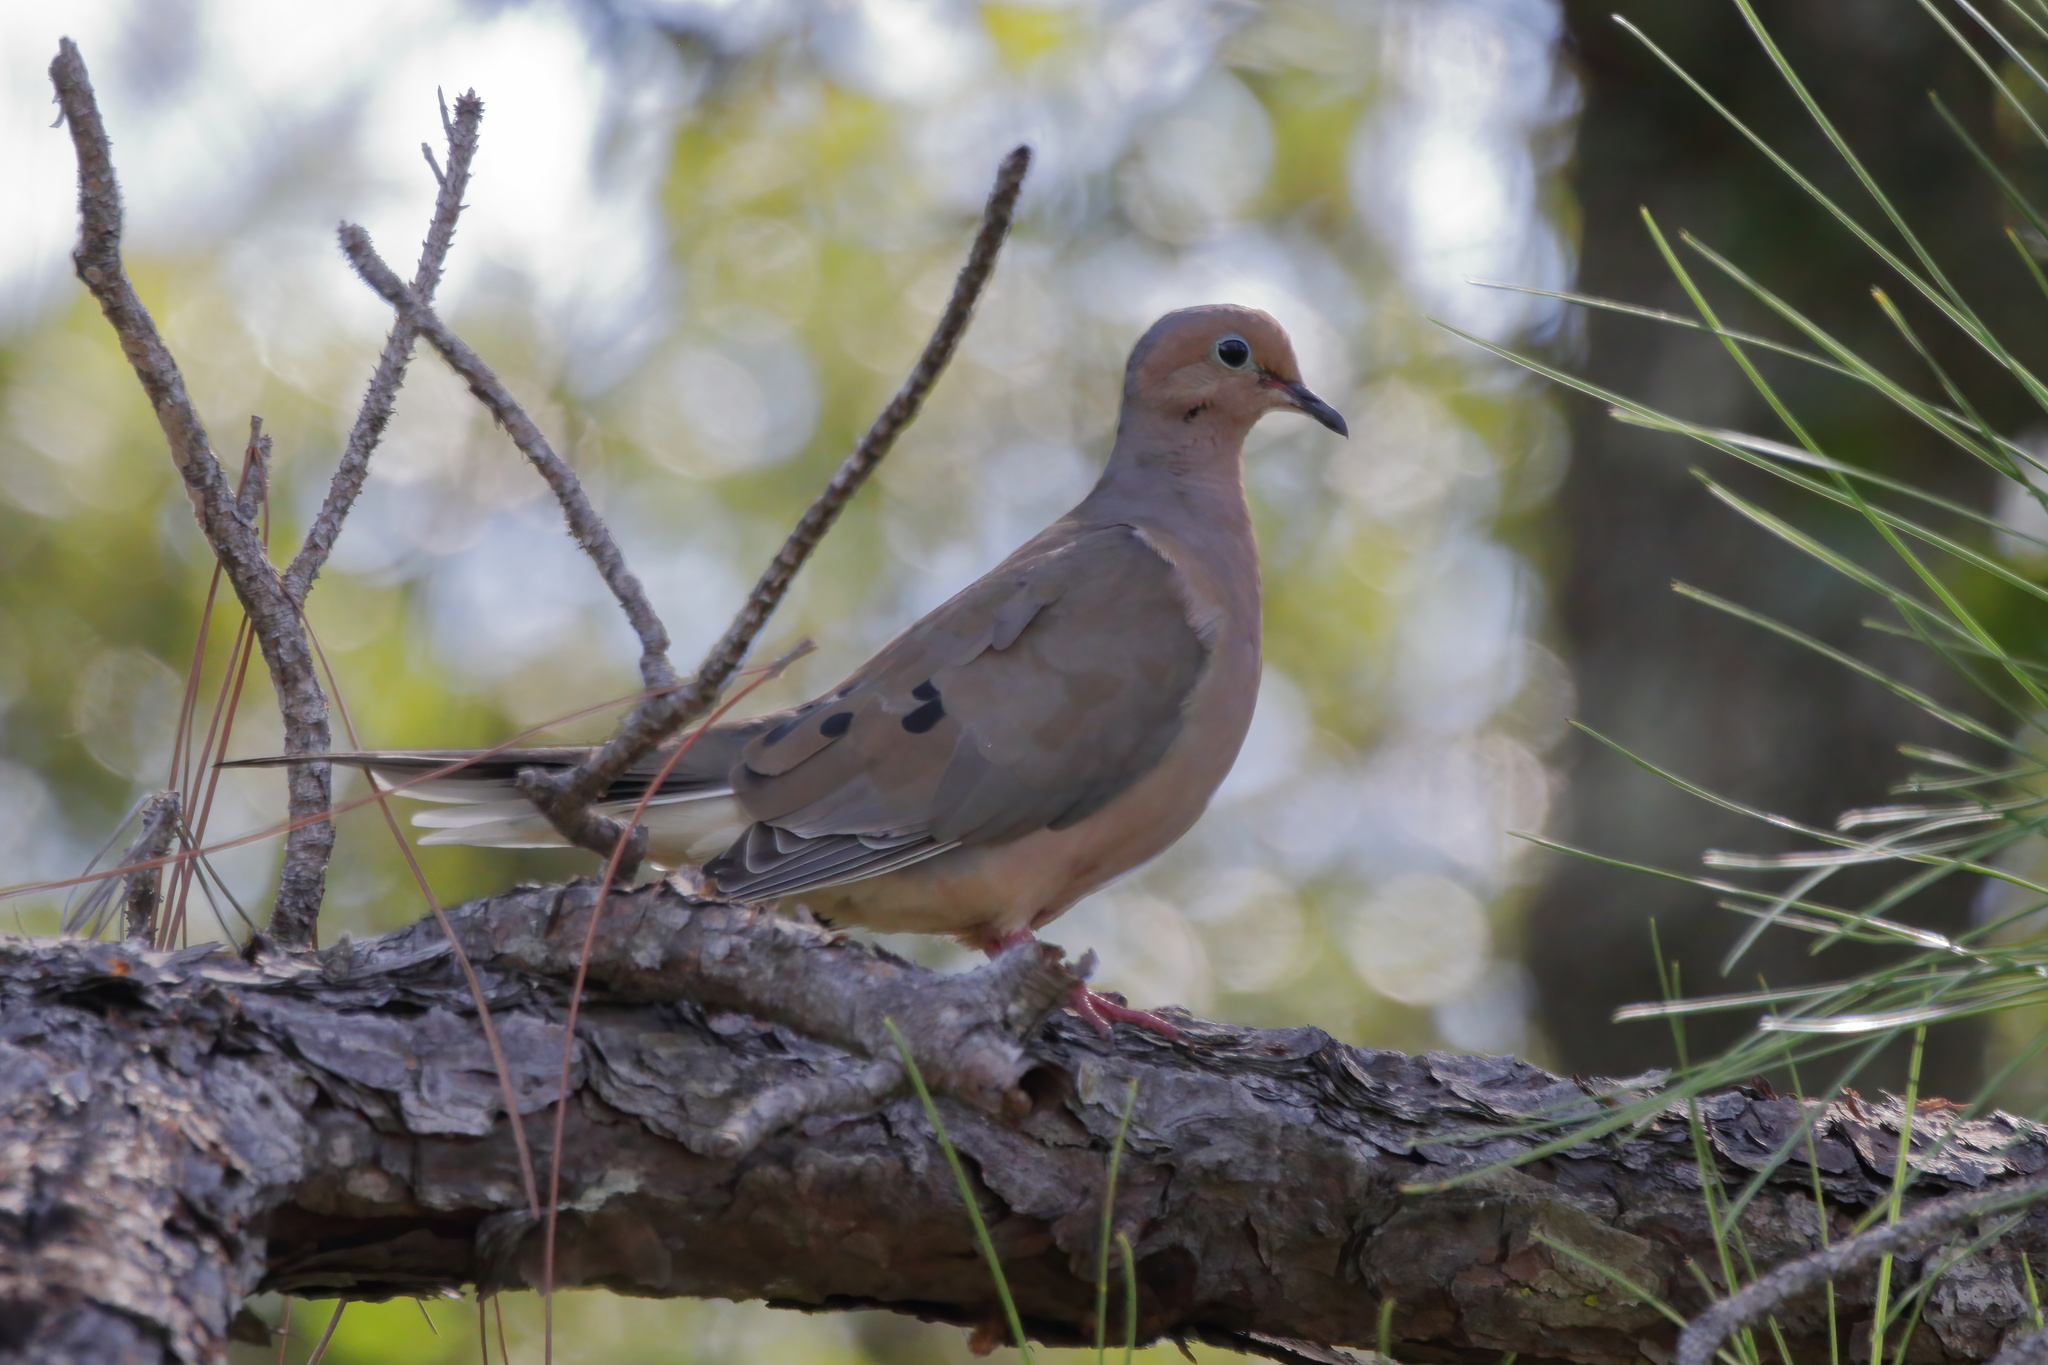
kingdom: Animalia
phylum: Chordata
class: Aves
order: Columbiformes
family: Columbidae
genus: Zenaida
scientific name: Zenaida macroura
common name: Mourning dove
